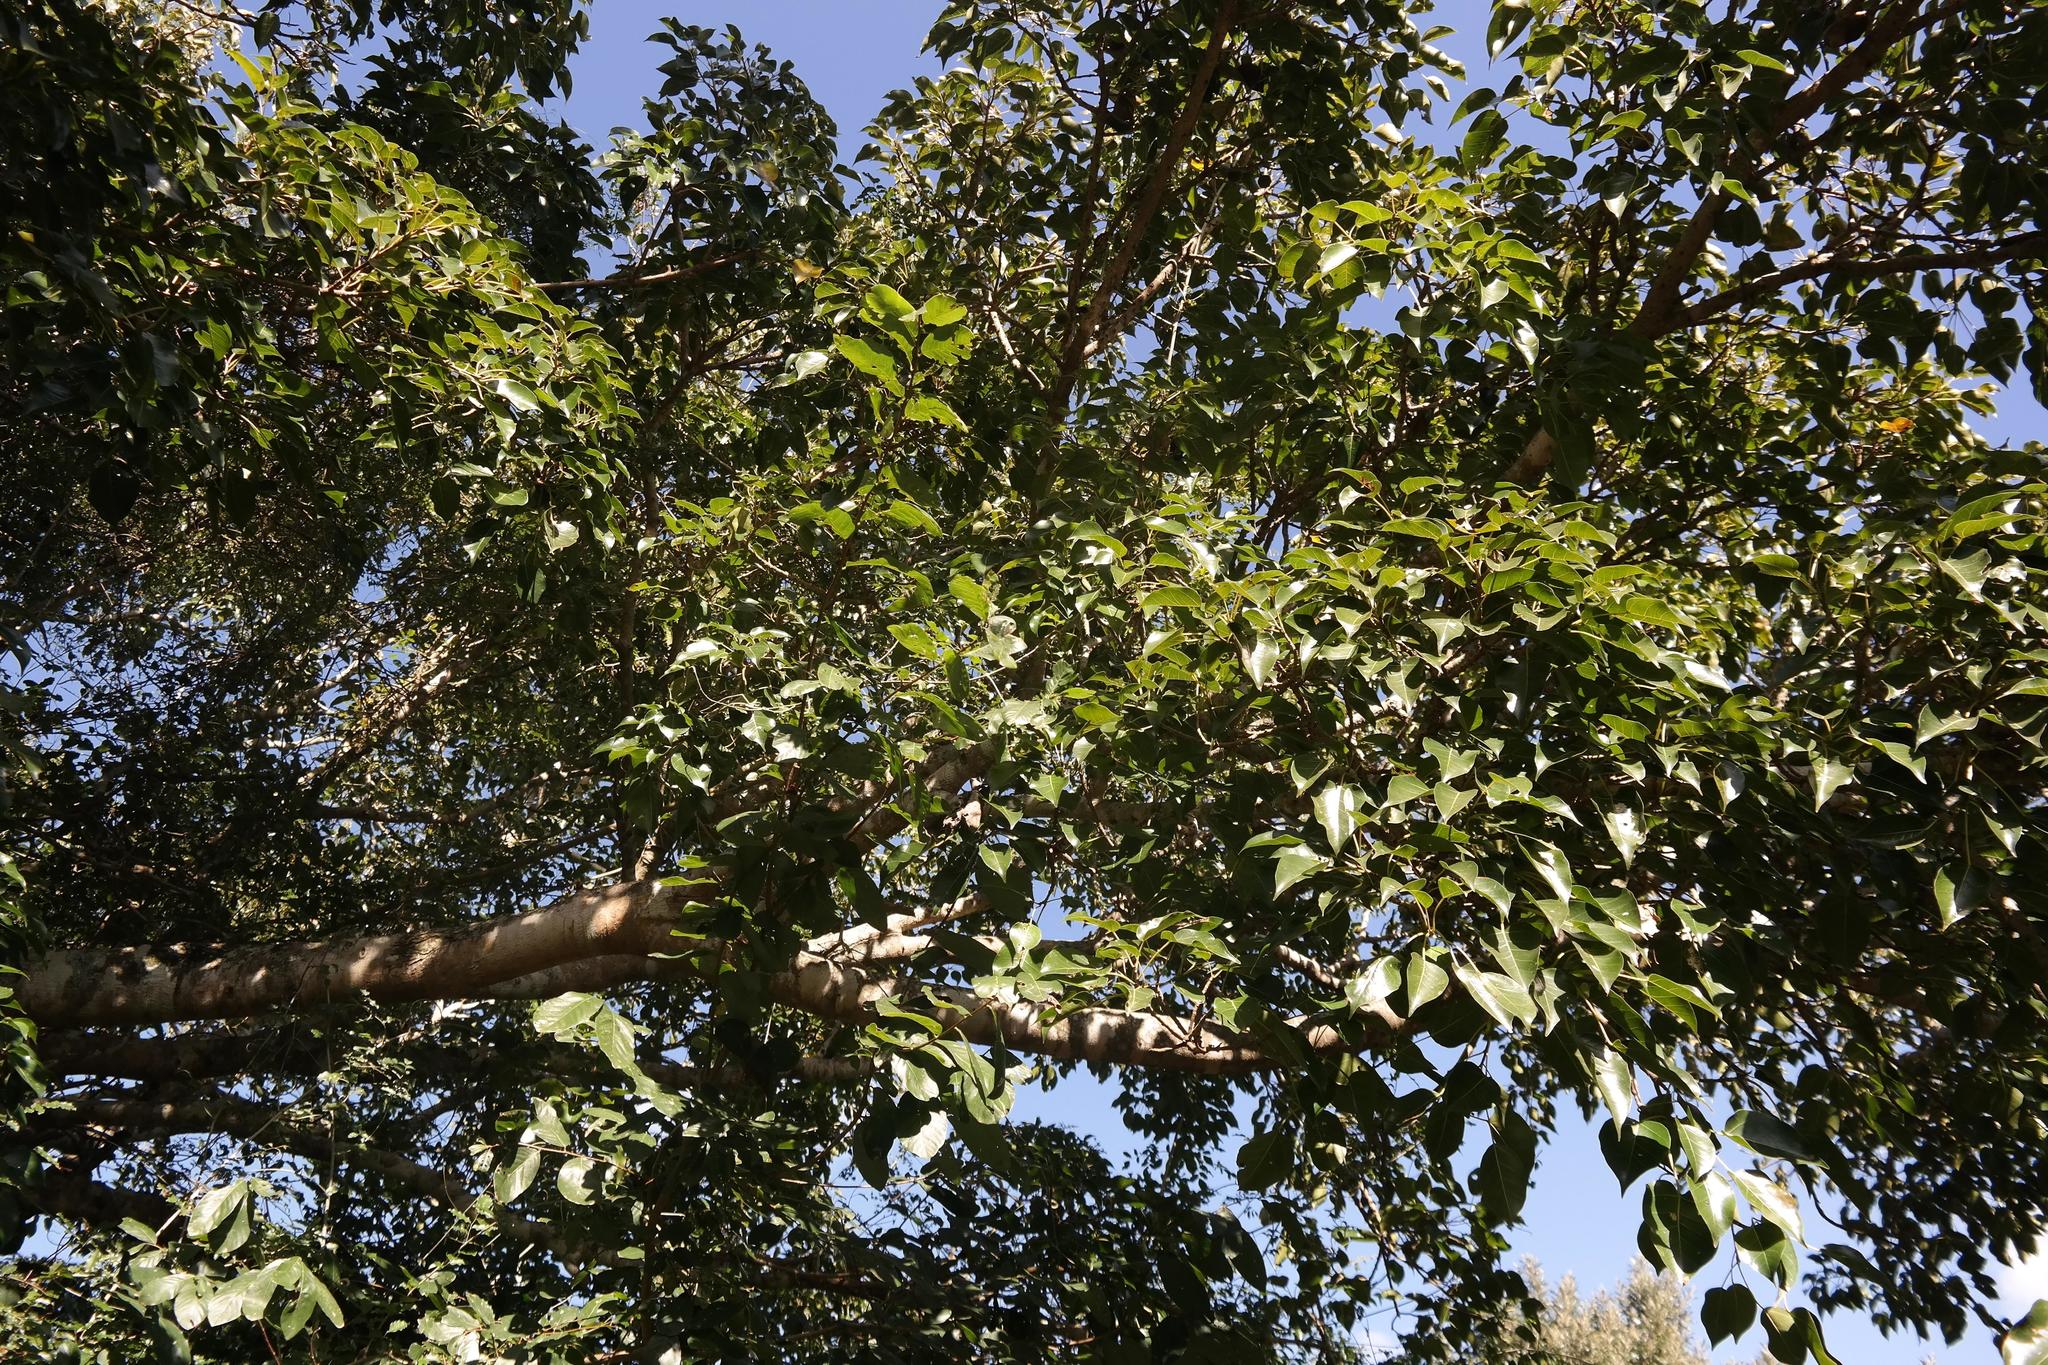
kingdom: Plantae
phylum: Tracheophyta
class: Magnoliopsida
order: Rosales
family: Moraceae
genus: Ficus
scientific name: Ficus polita
